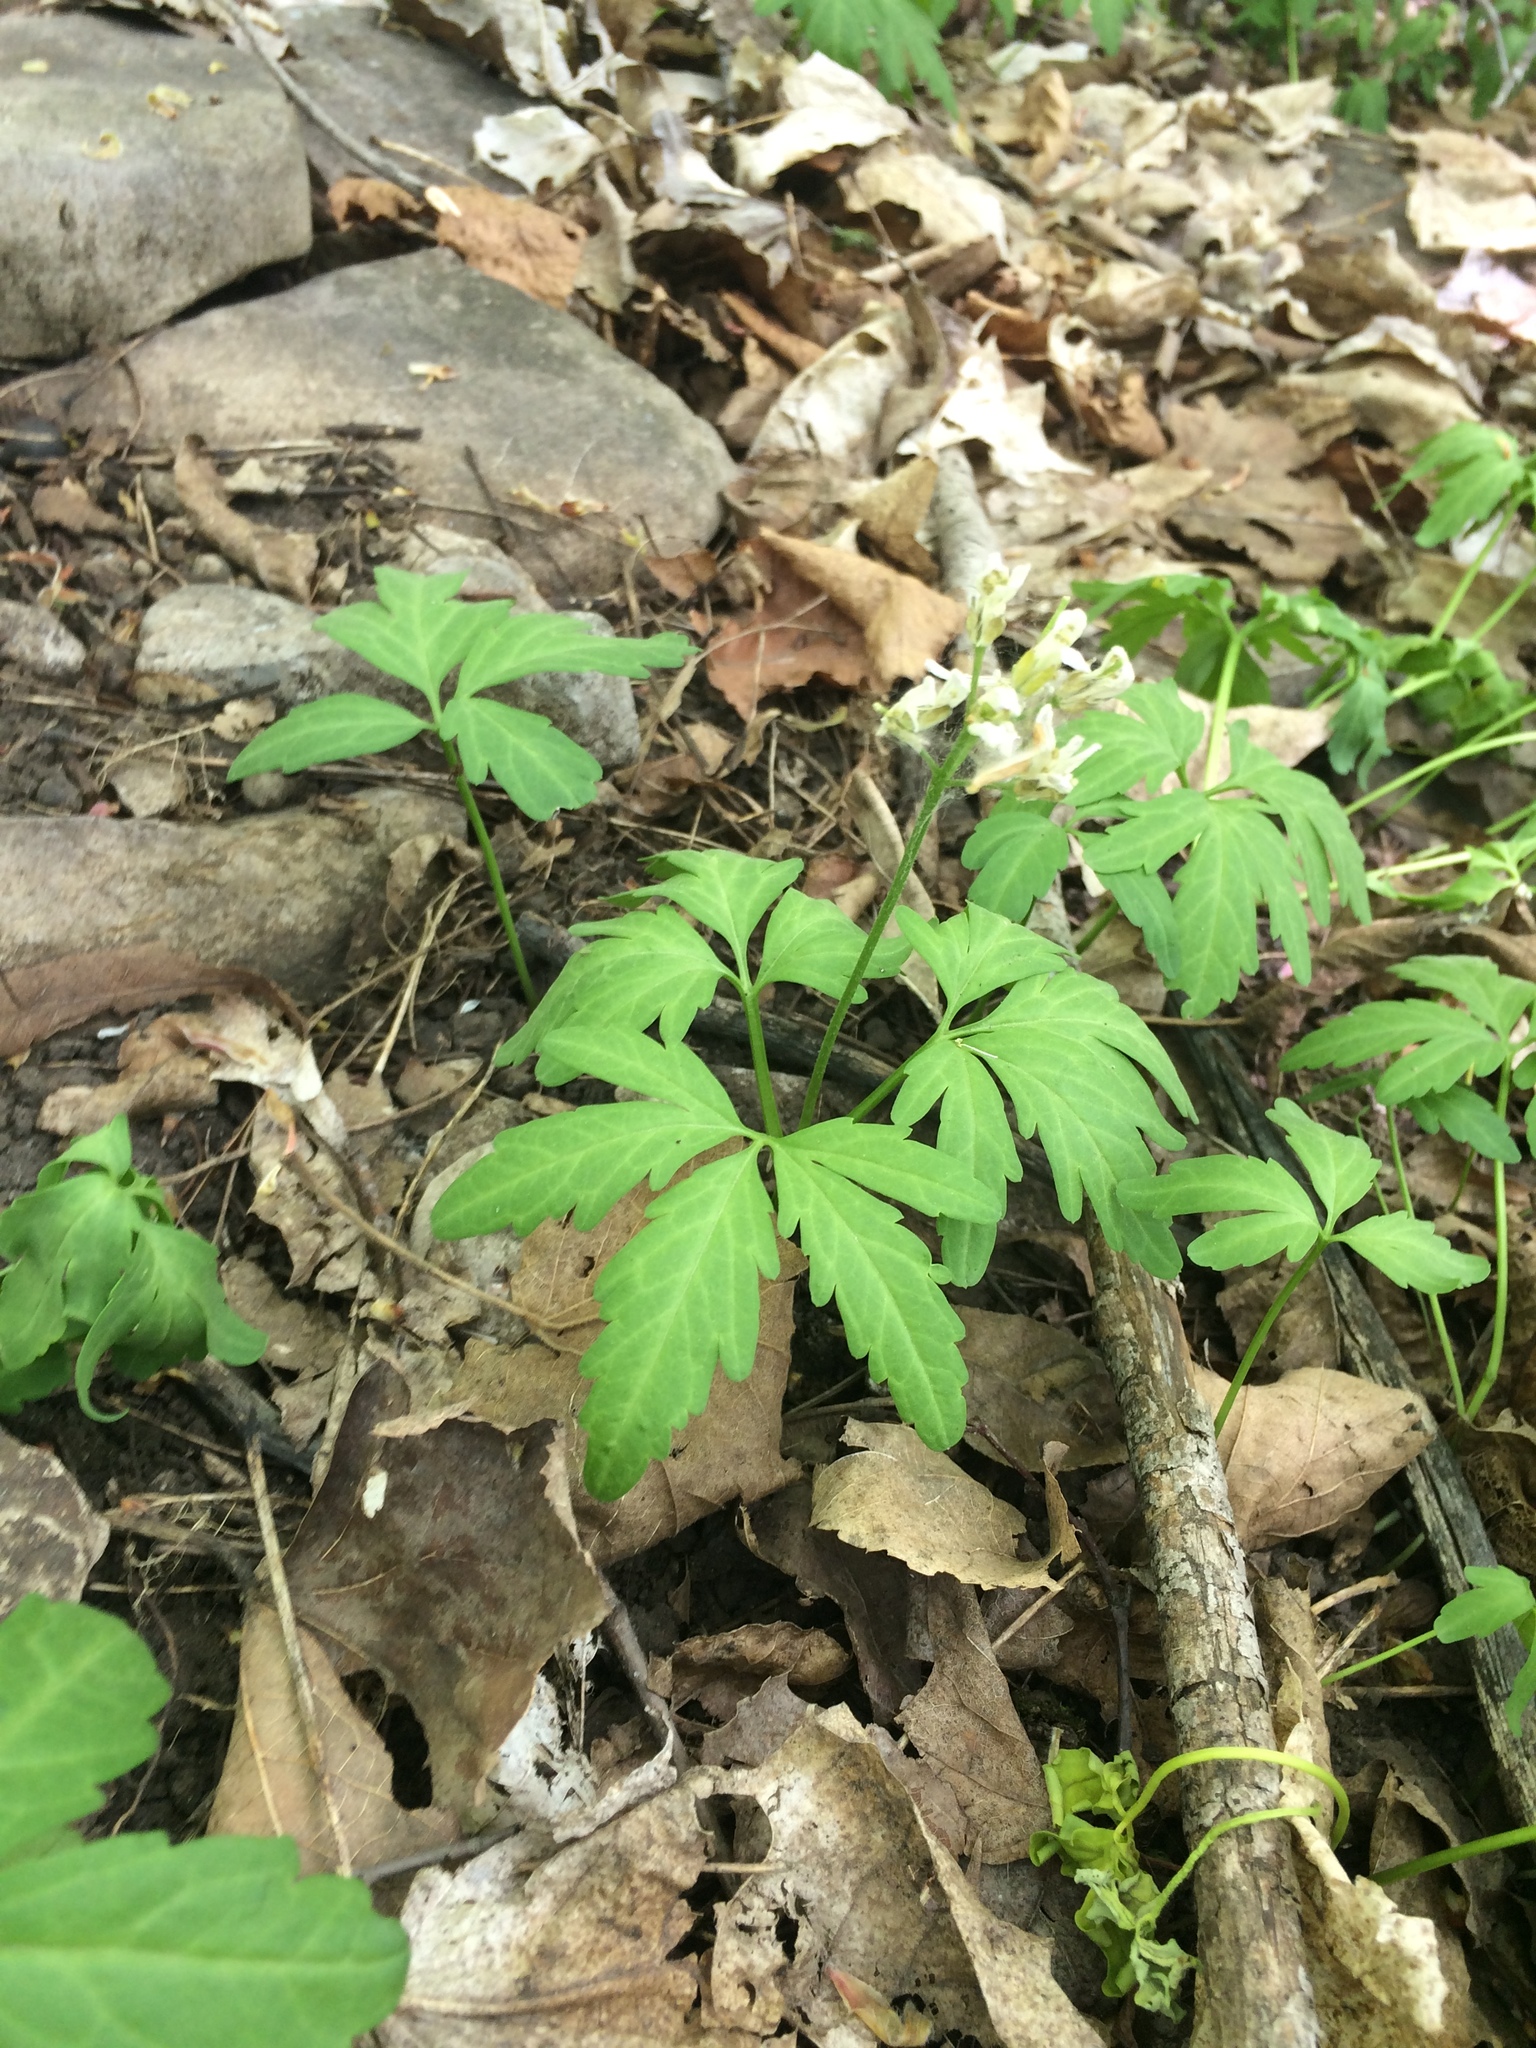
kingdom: Plantae
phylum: Tracheophyta
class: Magnoliopsida
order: Brassicales
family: Brassicaceae
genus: Cardamine
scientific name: Cardamine concatenata
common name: Cut-leaf toothcup
